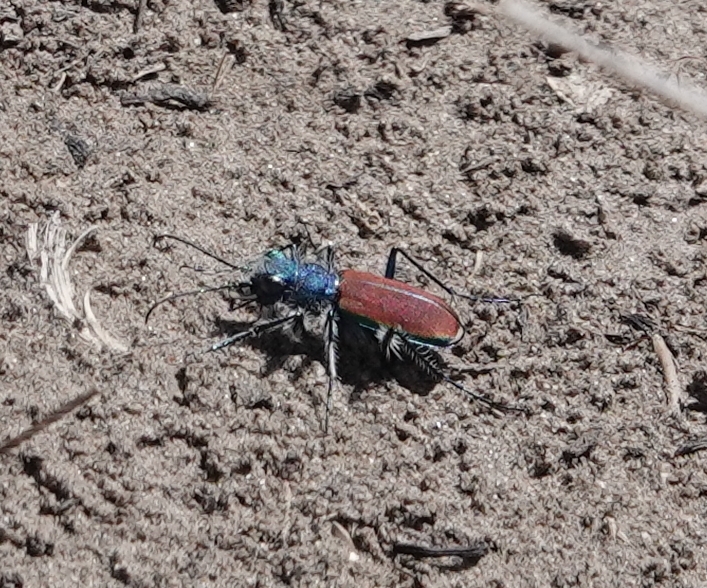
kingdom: Animalia
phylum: Arthropoda
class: Insecta
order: Coleoptera
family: Carabidae
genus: Cicindela
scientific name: Cicindela splendida
